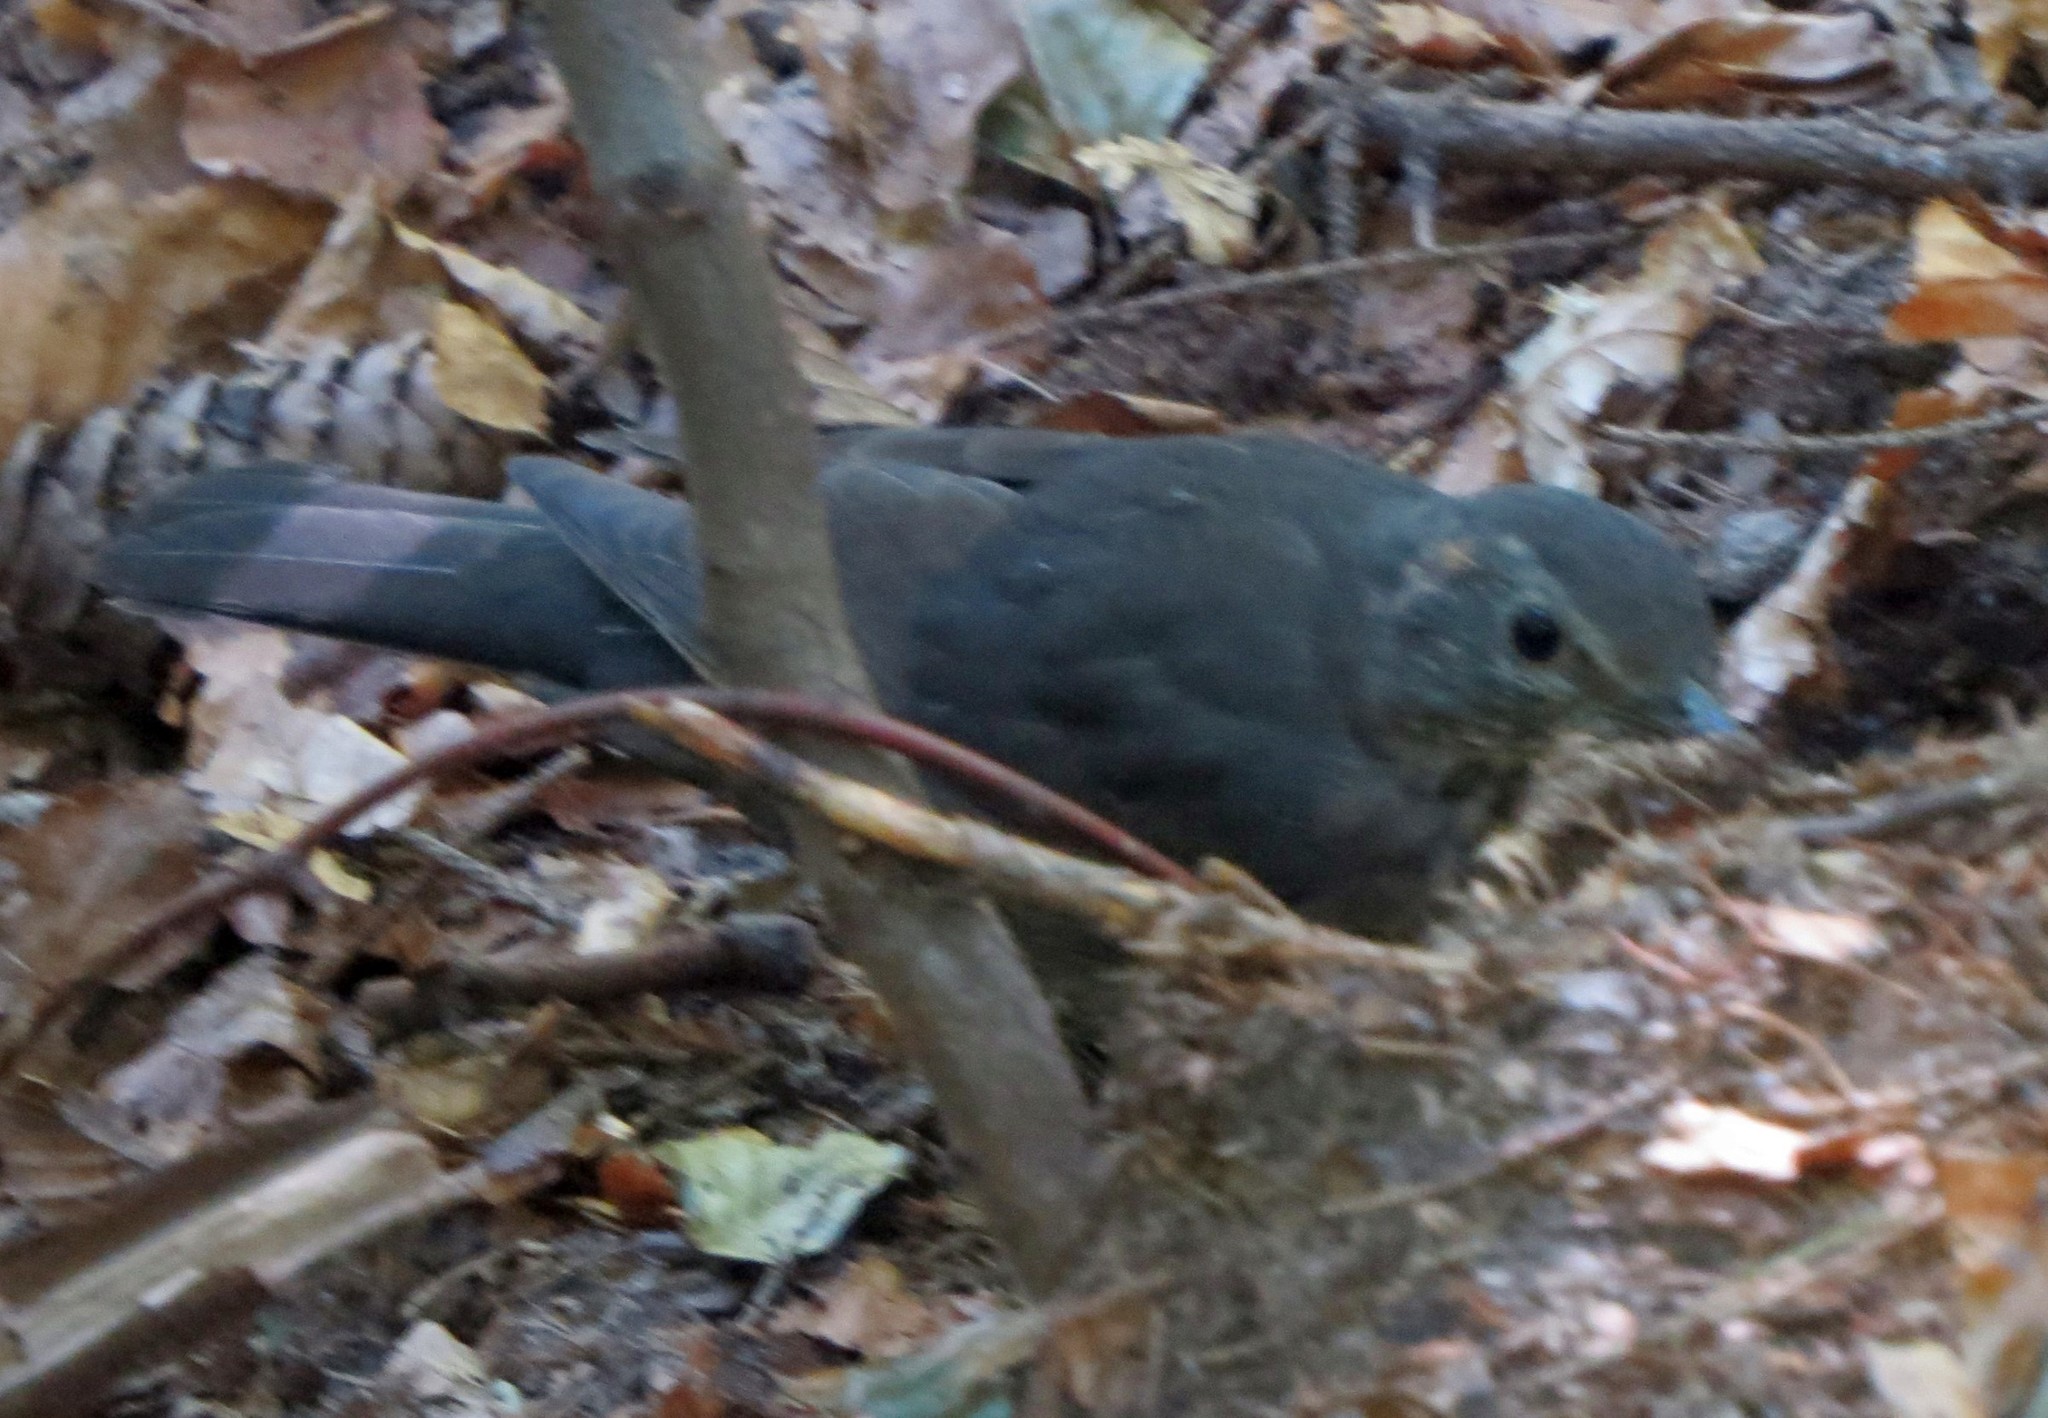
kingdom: Animalia
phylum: Chordata
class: Aves
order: Passeriformes
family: Turdidae
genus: Turdus
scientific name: Turdus merula
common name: Common blackbird
